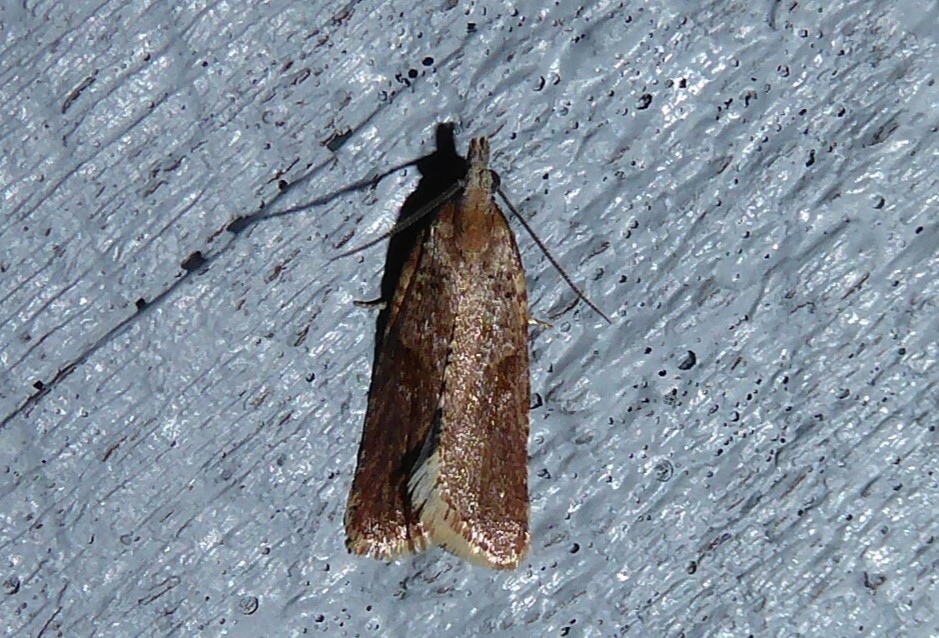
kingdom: Animalia
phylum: Arthropoda
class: Insecta
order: Lepidoptera
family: Tortricidae
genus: Capua
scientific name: Capua semiferana
